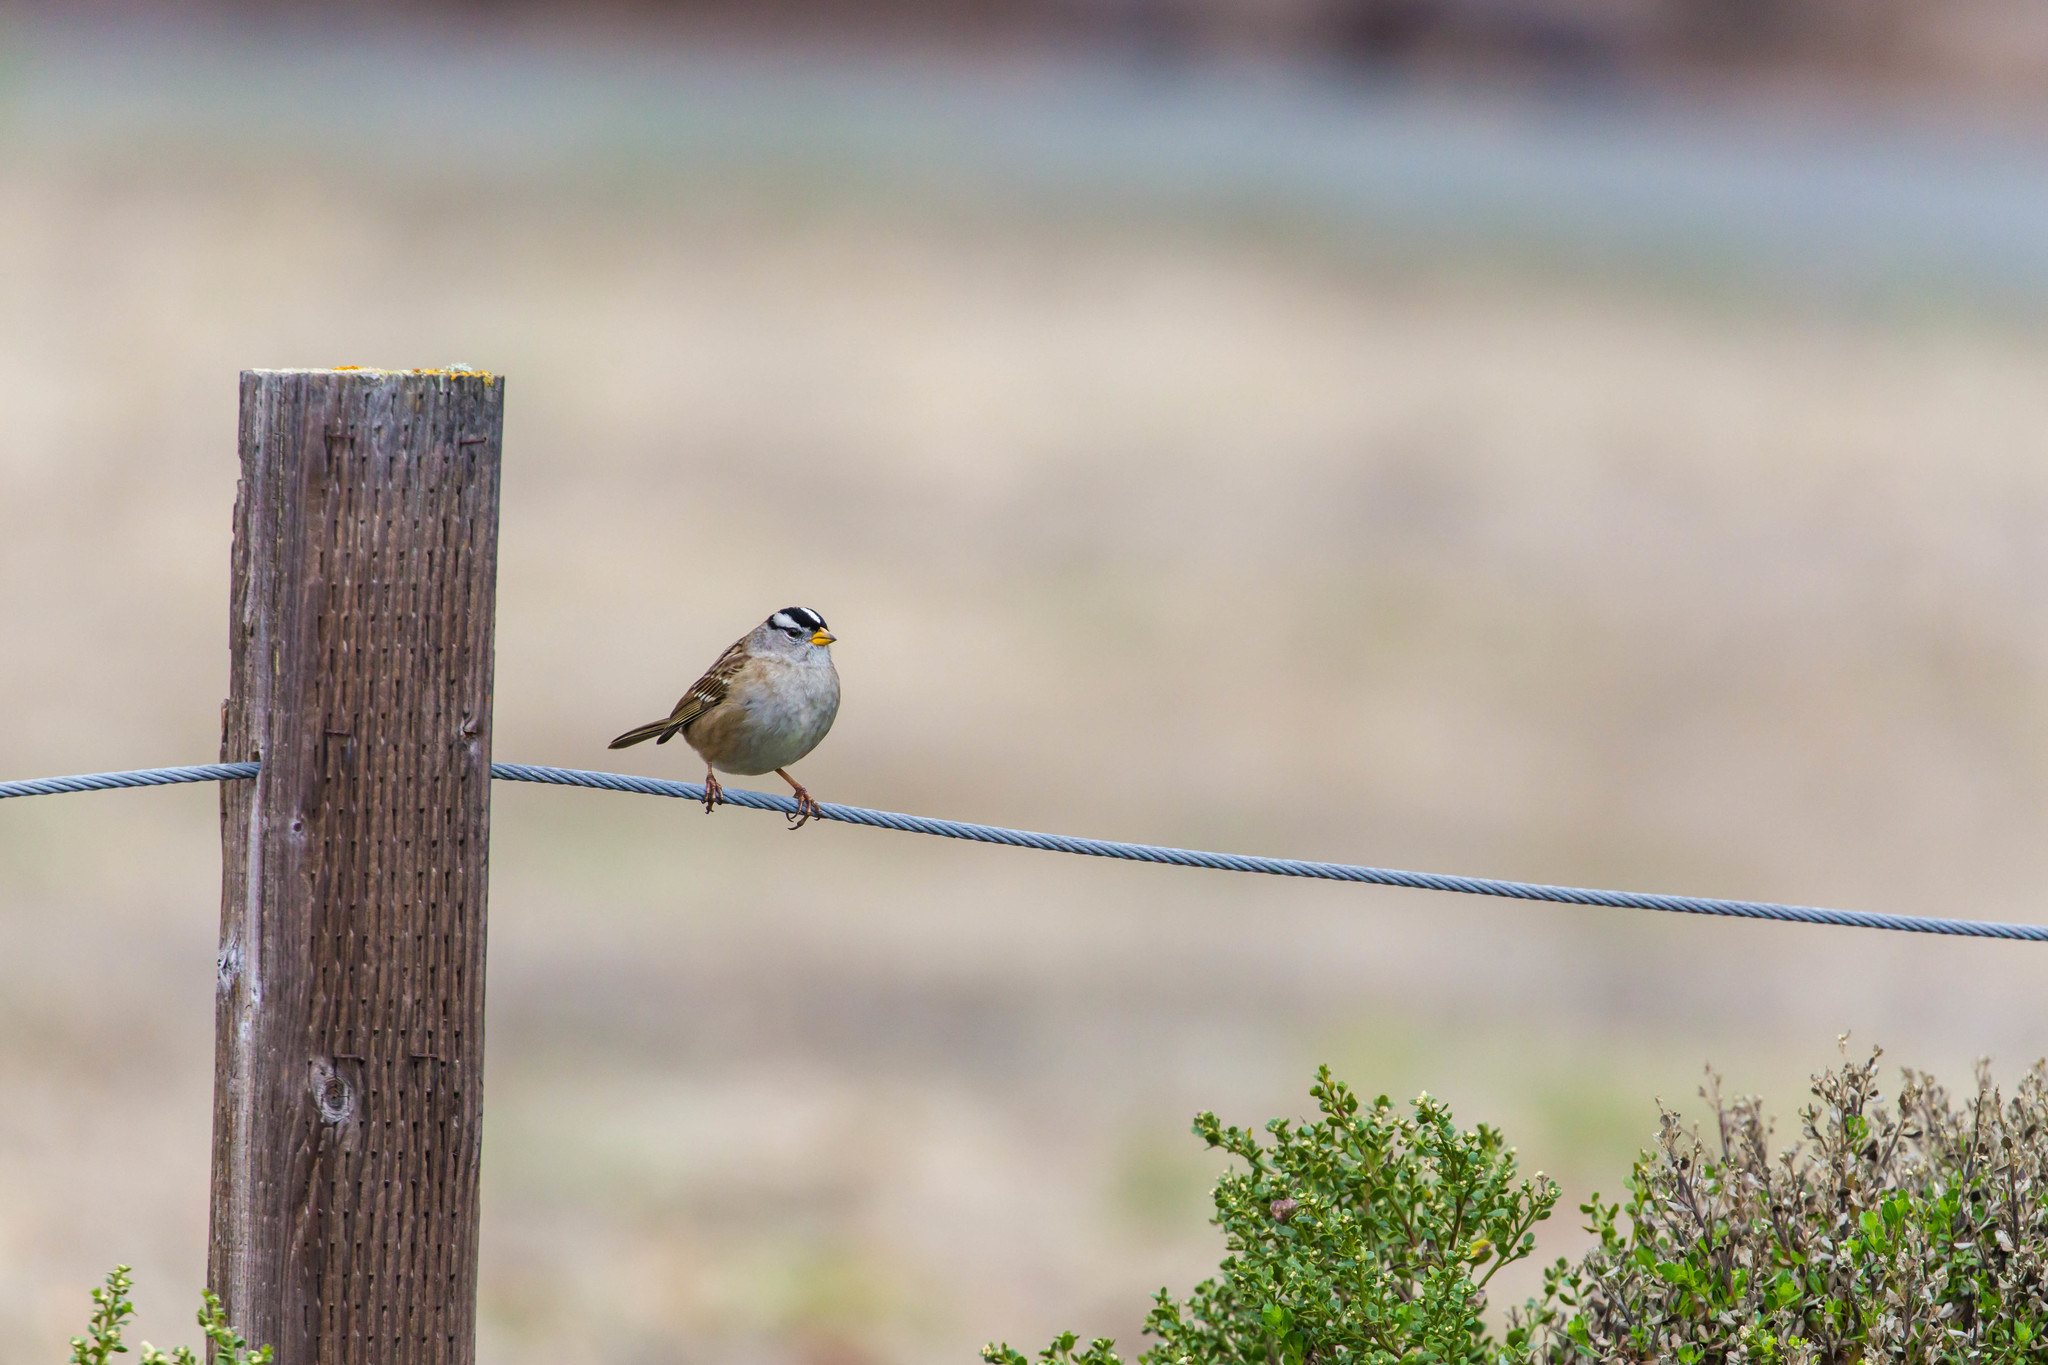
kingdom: Animalia
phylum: Chordata
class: Aves
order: Passeriformes
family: Passerellidae
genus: Zonotrichia
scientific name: Zonotrichia leucophrys
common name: White-crowned sparrow
